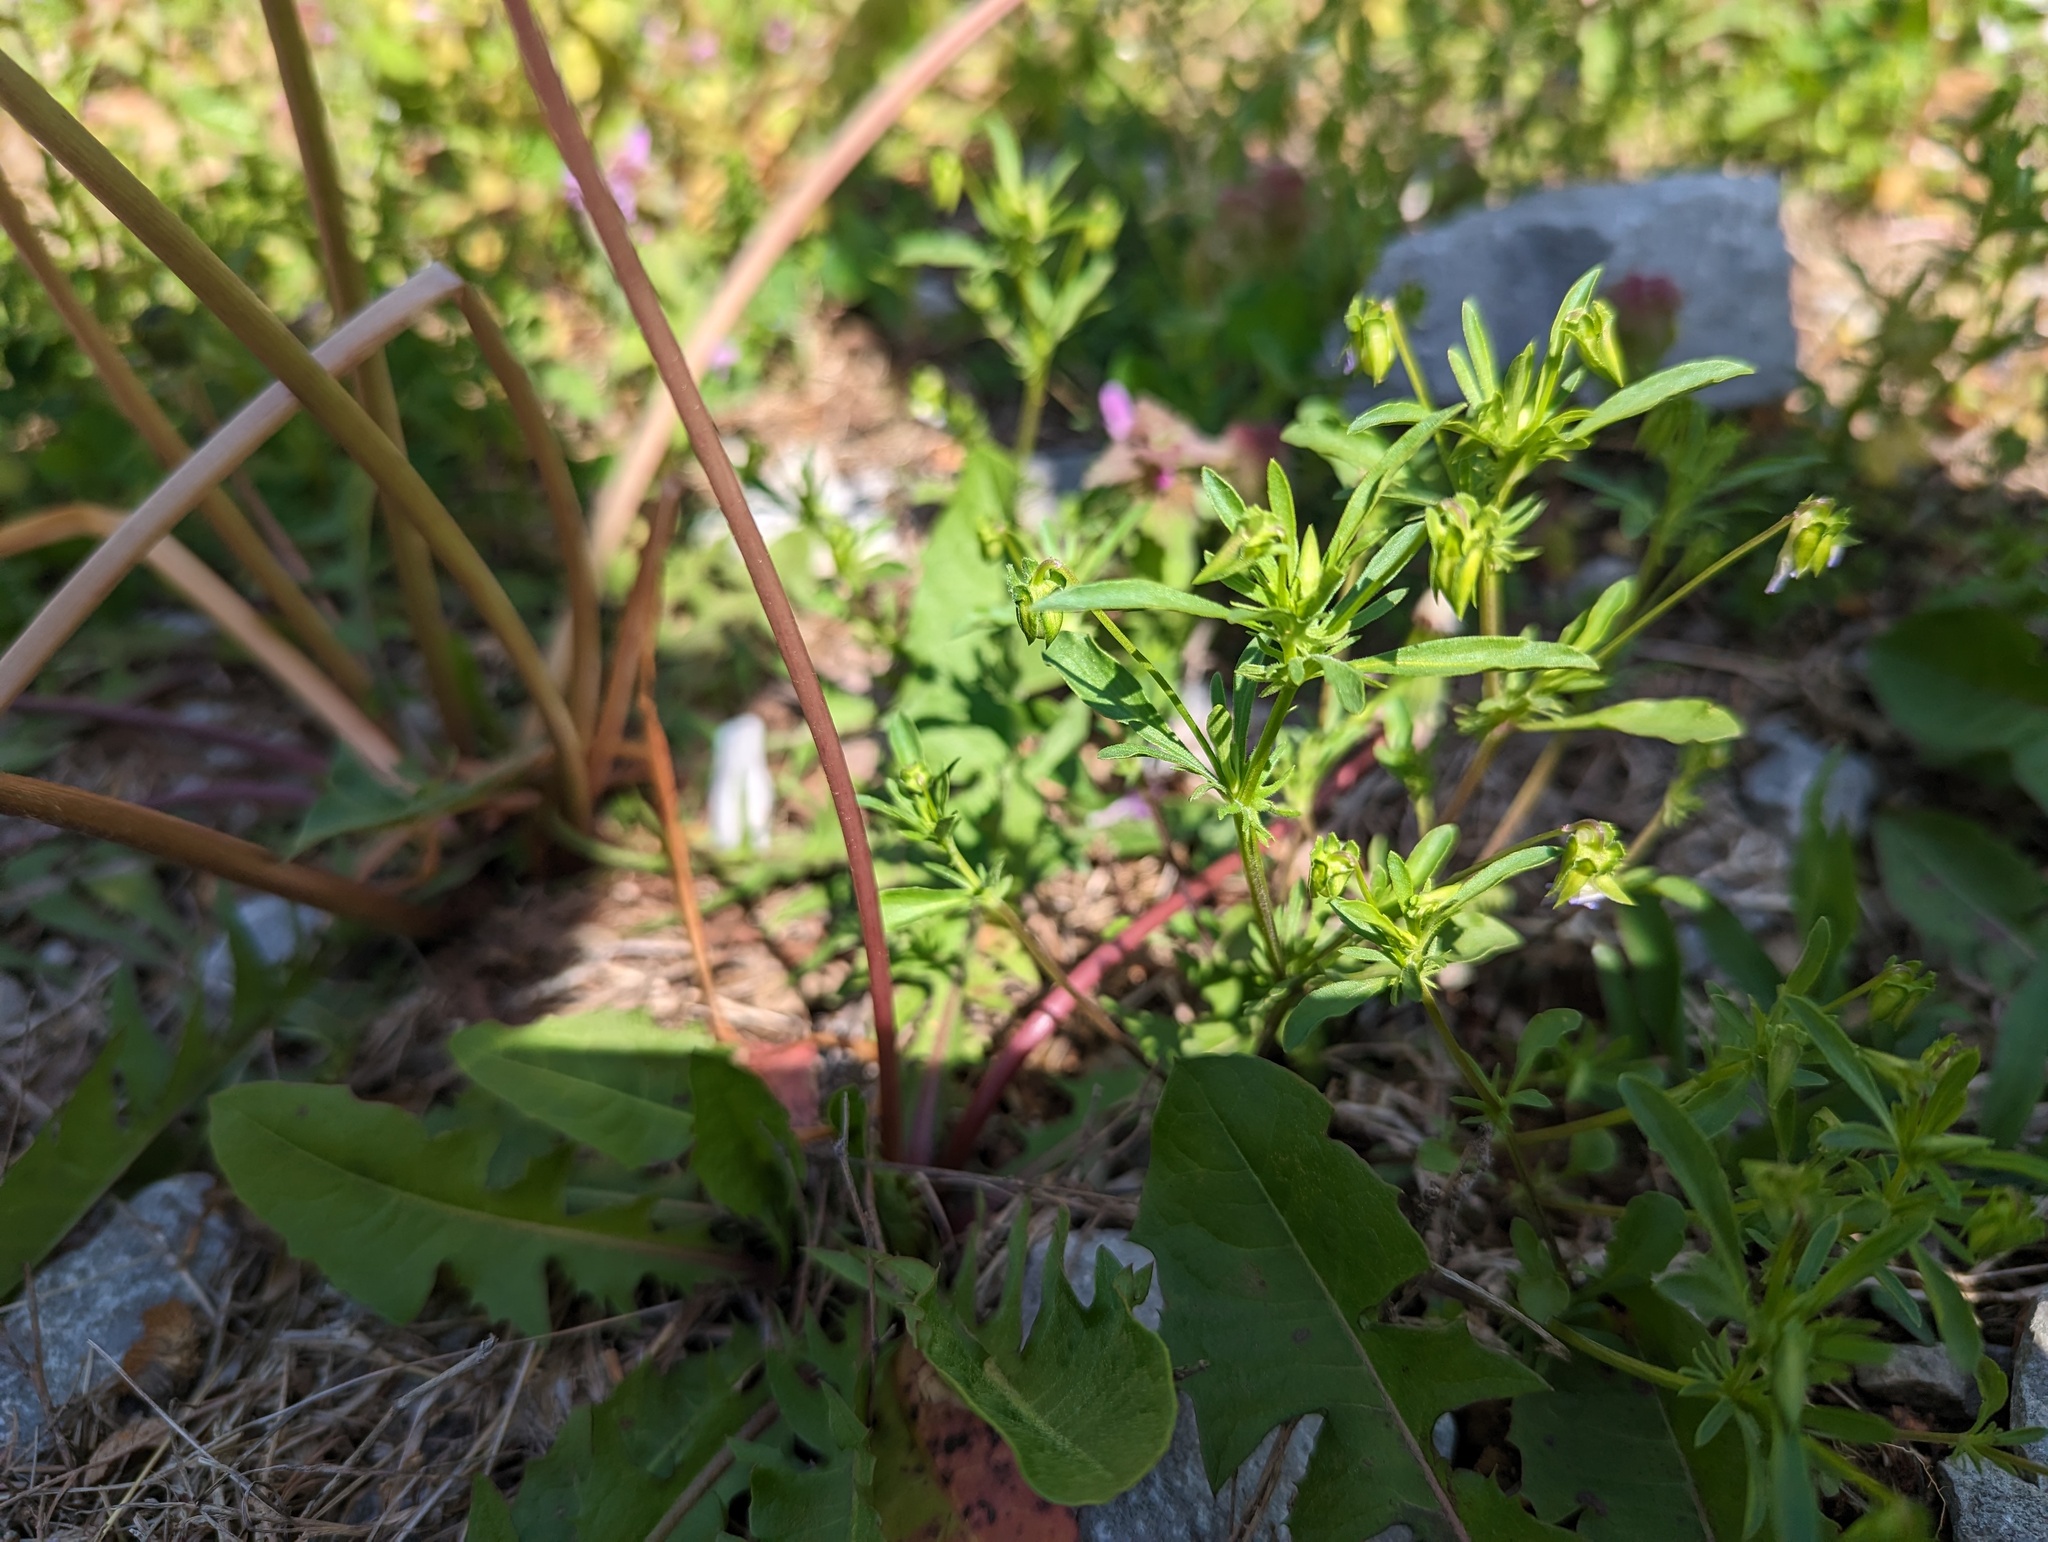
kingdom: Plantae
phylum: Tracheophyta
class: Magnoliopsida
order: Malpighiales
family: Violaceae
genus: Viola
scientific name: Viola rafinesquei
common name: American field pansy
